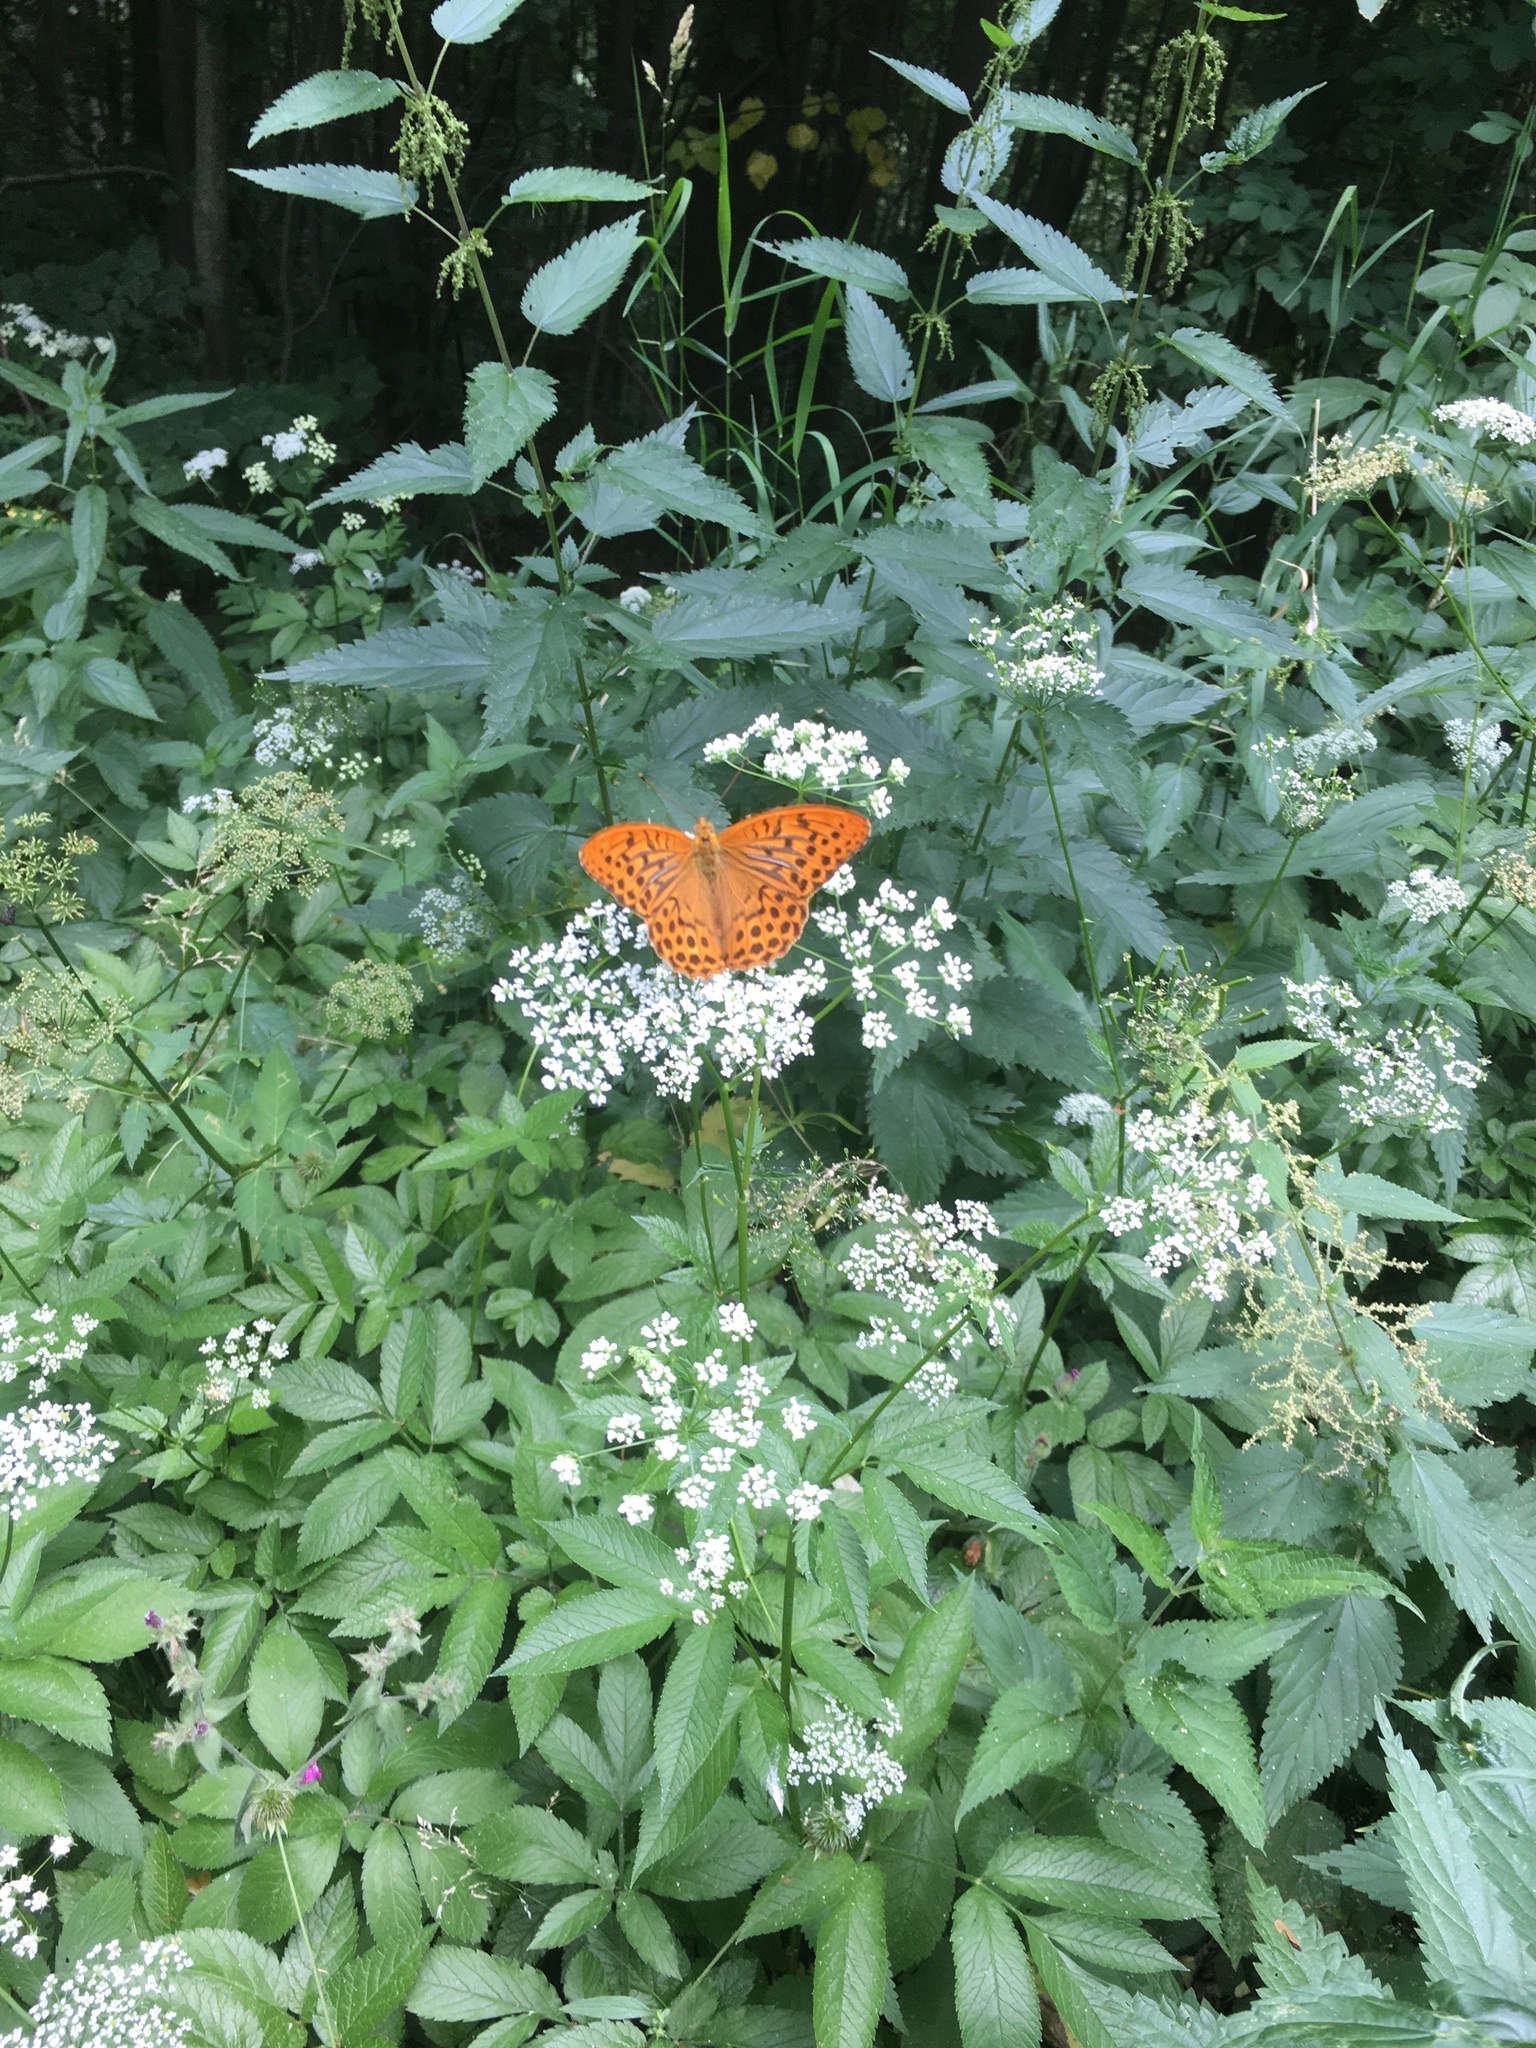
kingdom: Animalia
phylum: Arthropoda
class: Insecta
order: Lepidoptera
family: Nymphalidae
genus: Argynnis
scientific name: Argynnis paphia
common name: Silver-washed fritillary
